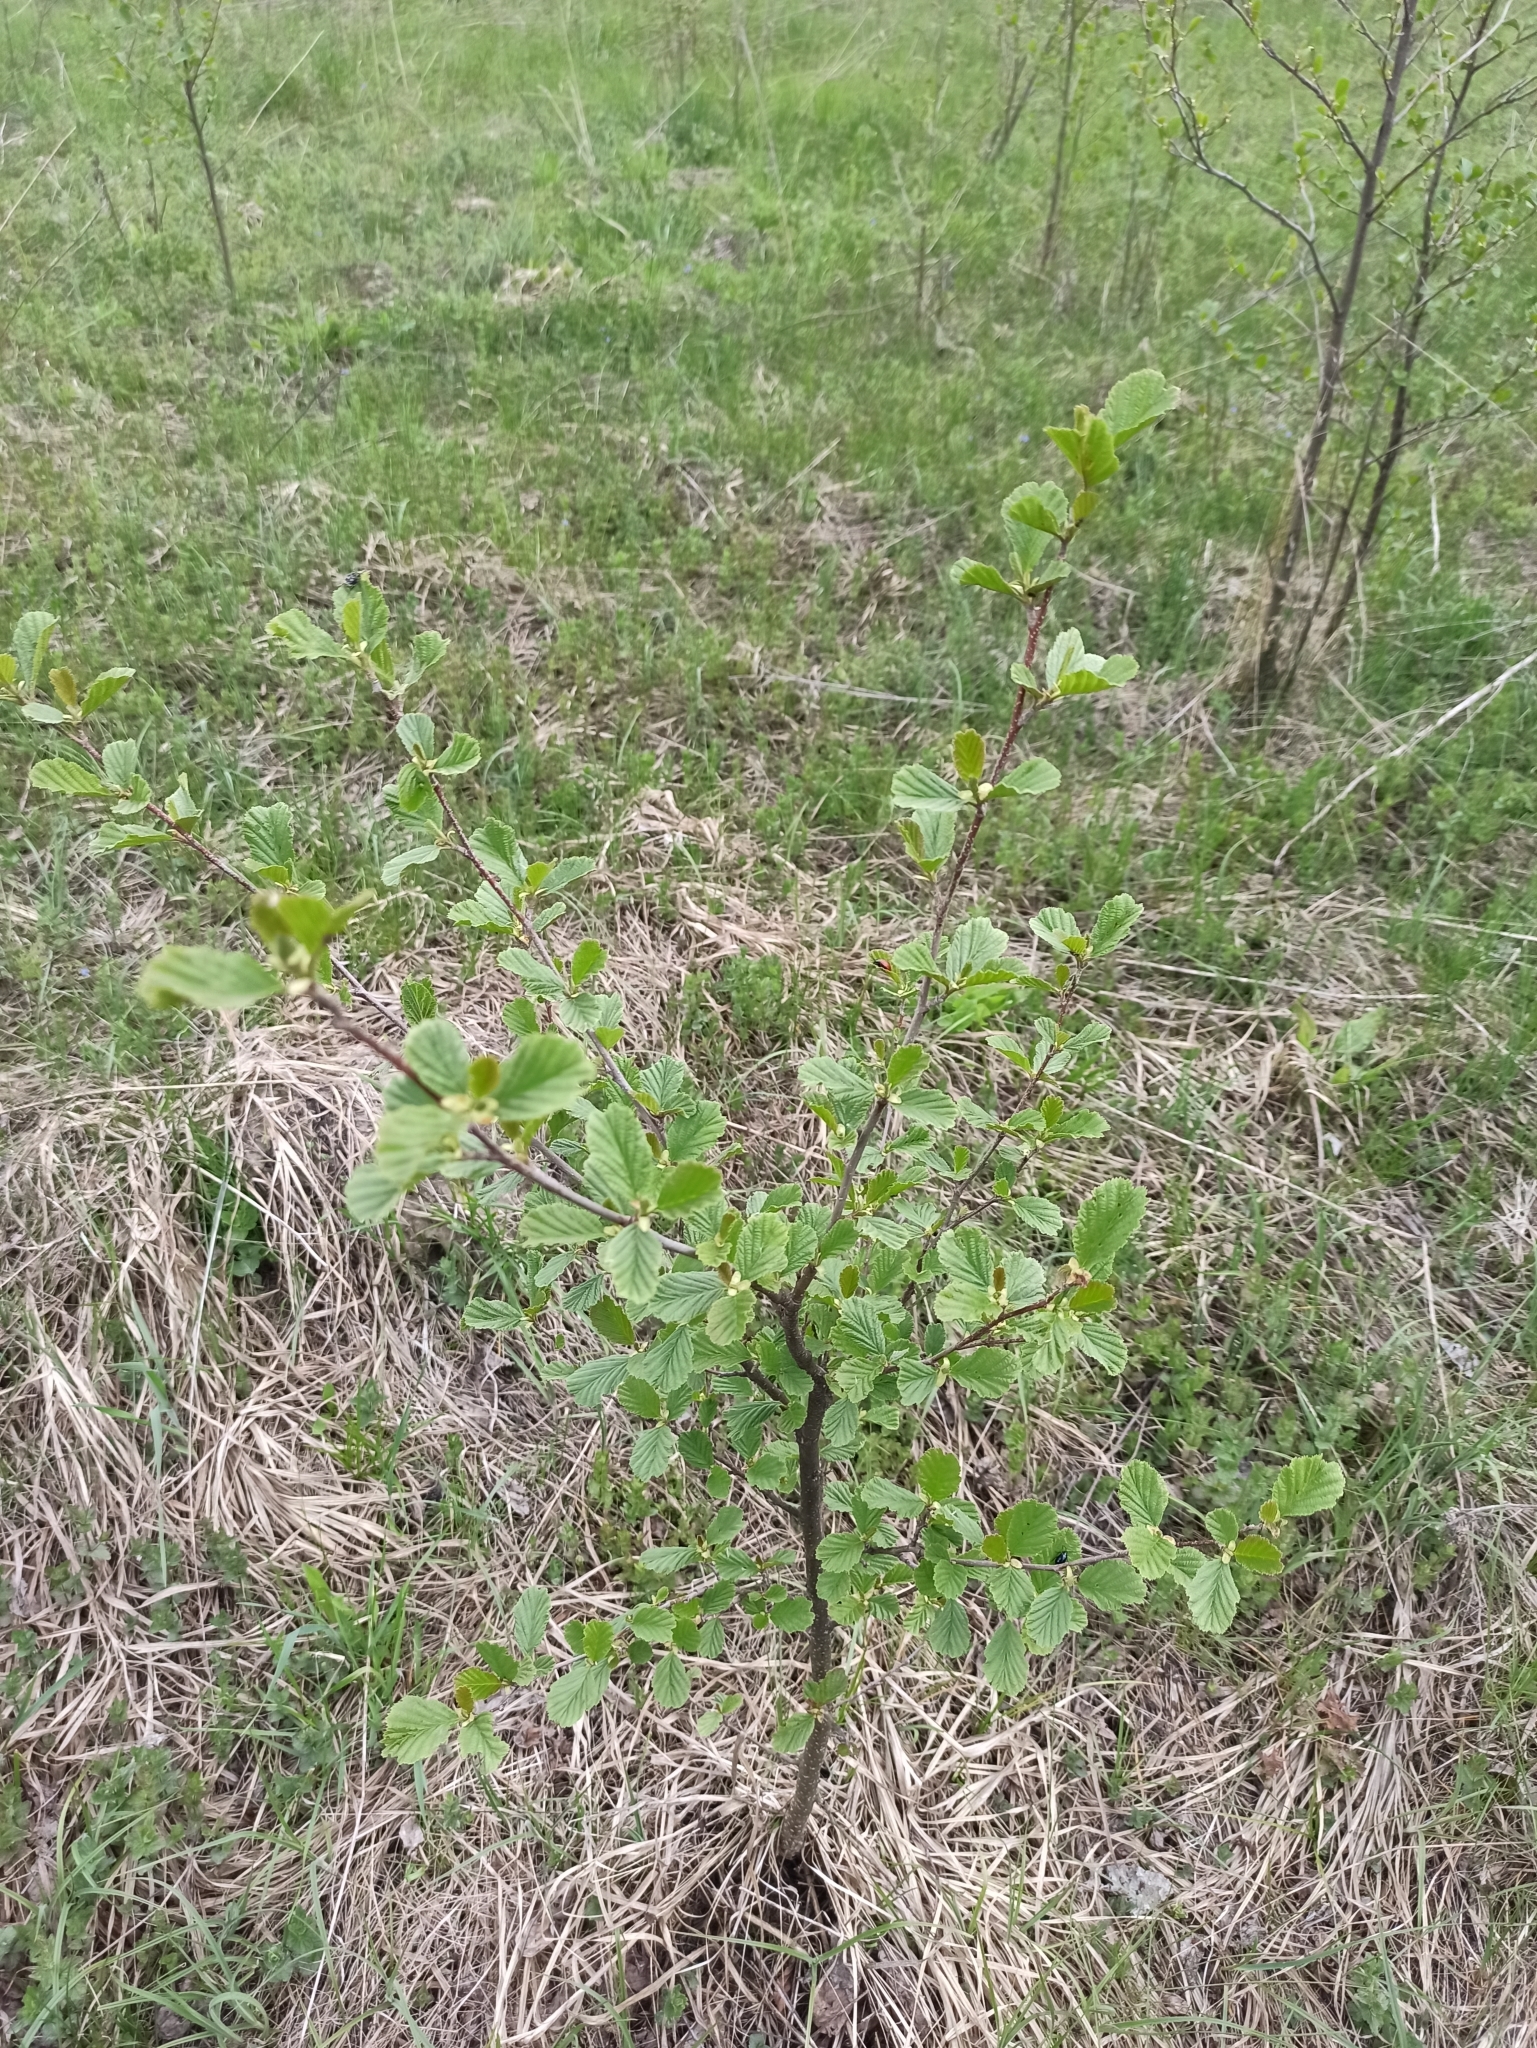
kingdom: Plantae
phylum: Tracheophyta
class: Magnoliopsida
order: Fagales
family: Betulaceae
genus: Alnus
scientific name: Alnus glutinosa
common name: Black alder
